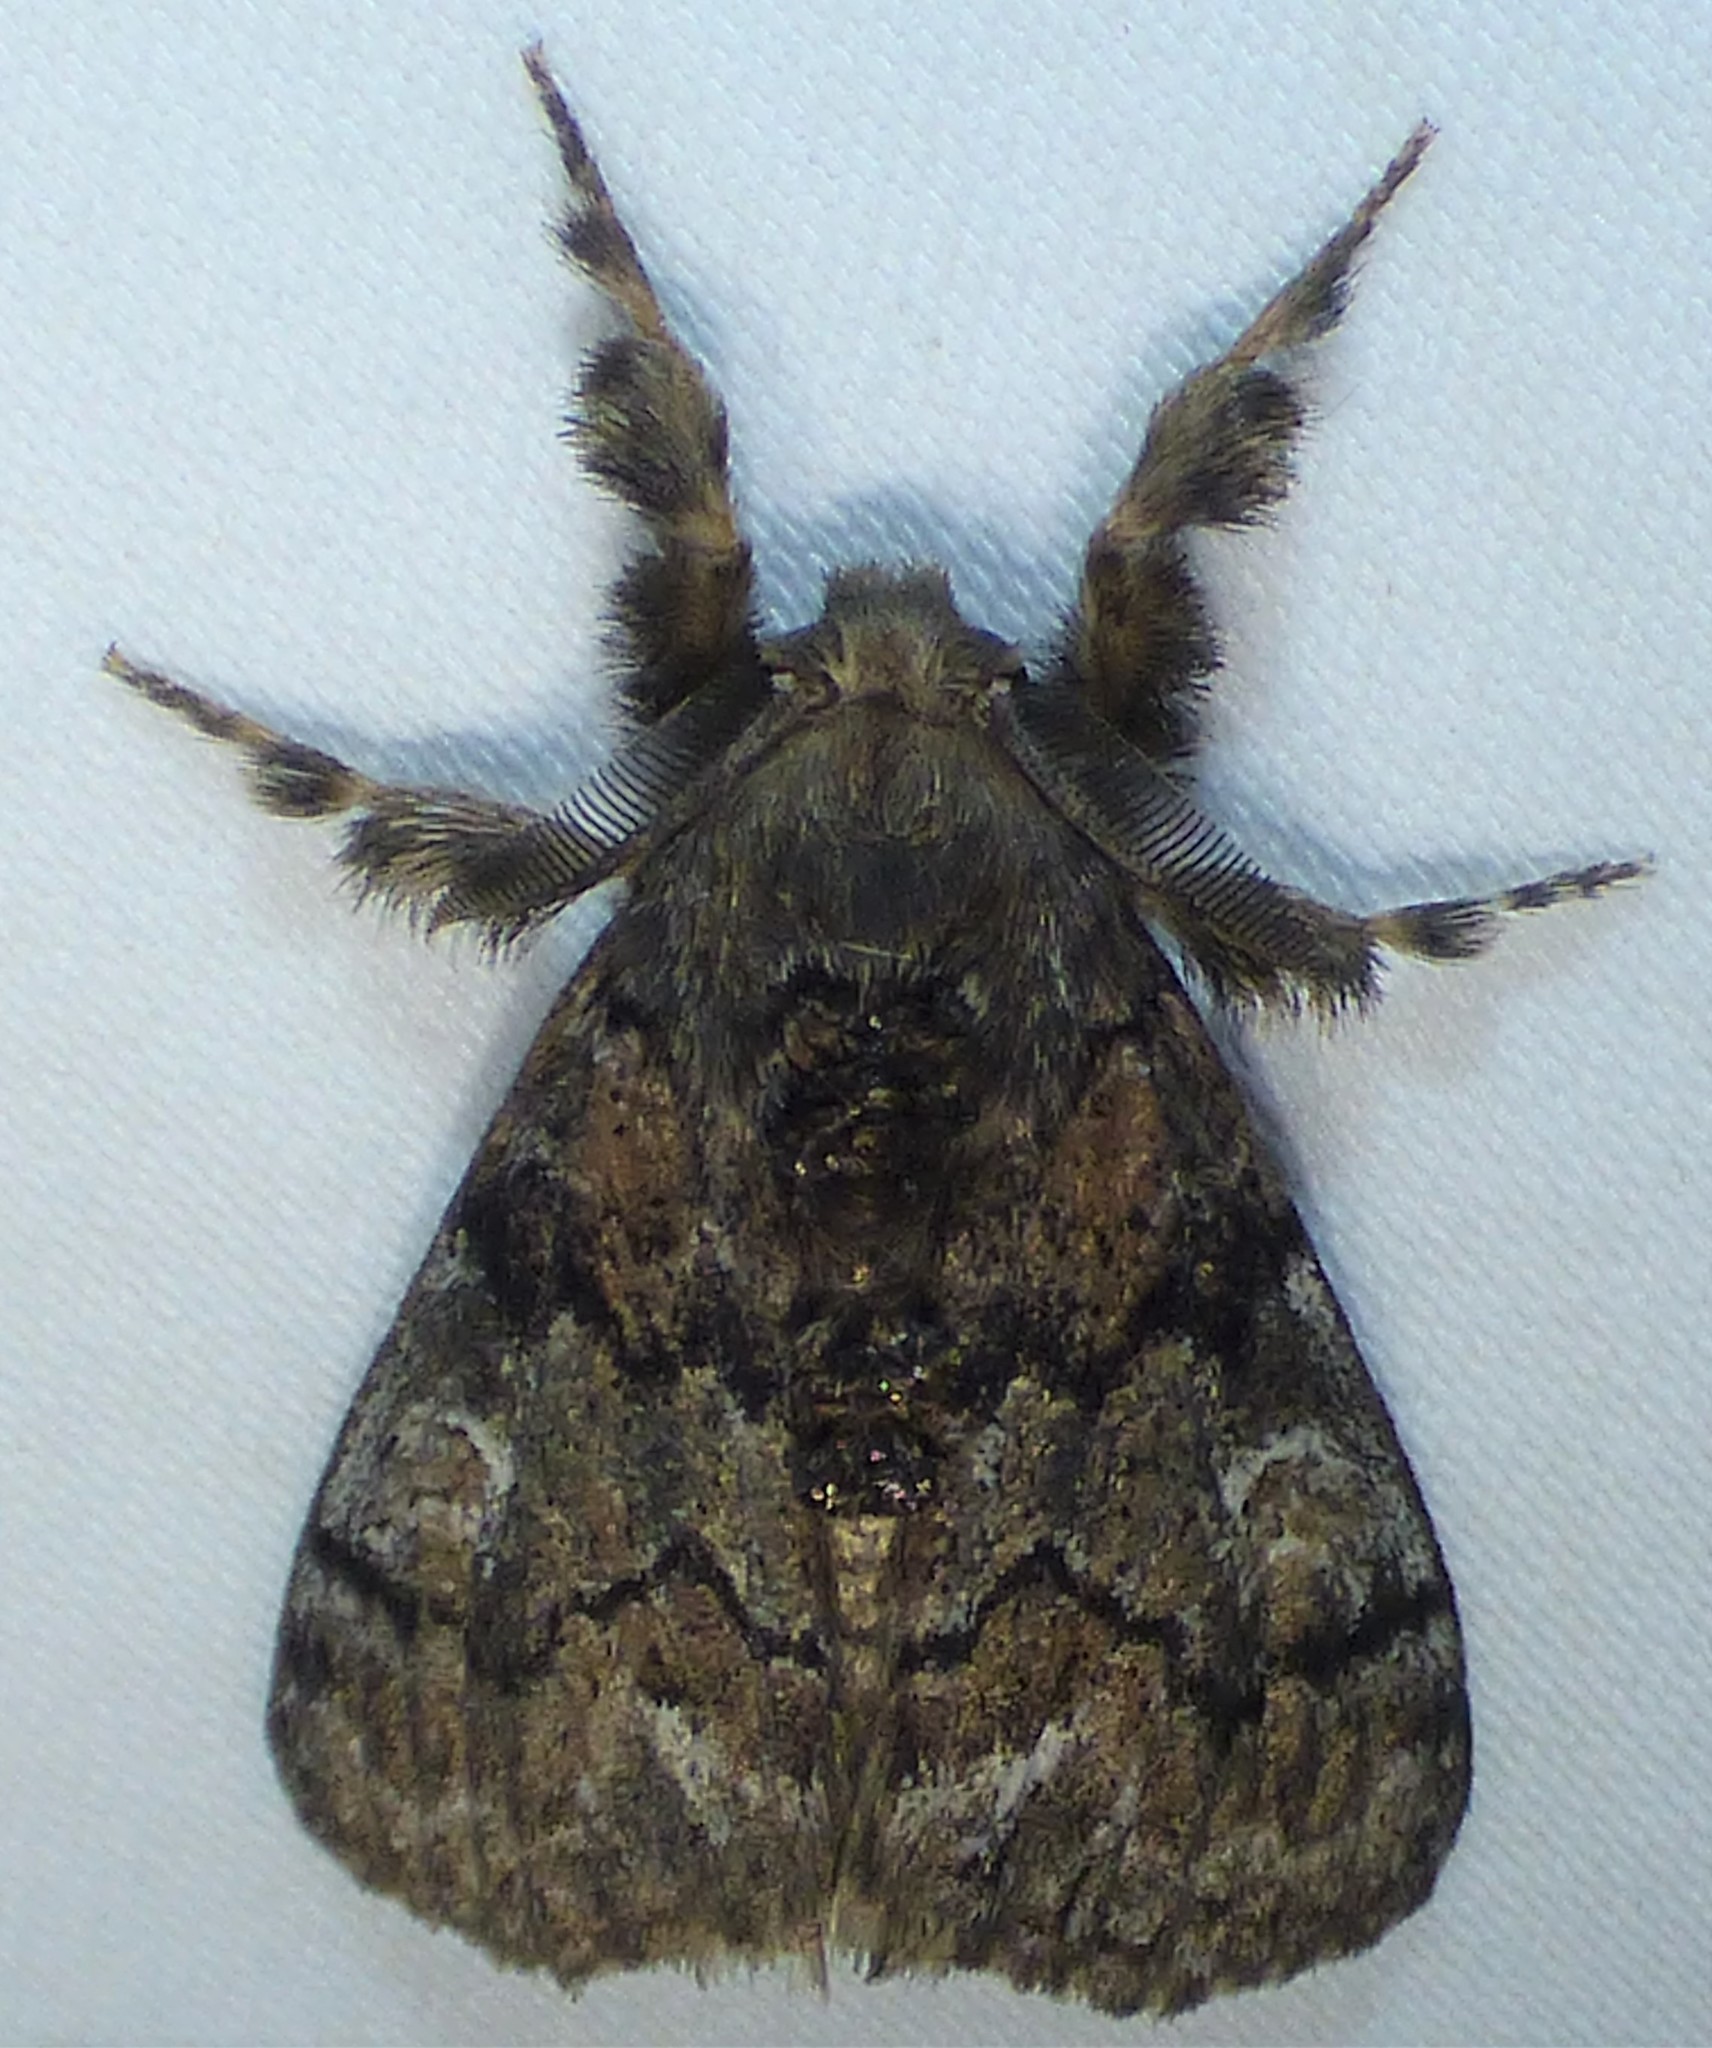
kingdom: Animalia
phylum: Arthropoda
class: Insecta
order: Lepidoptera
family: Erebidae
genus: Dasychira
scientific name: Dasychira manto
